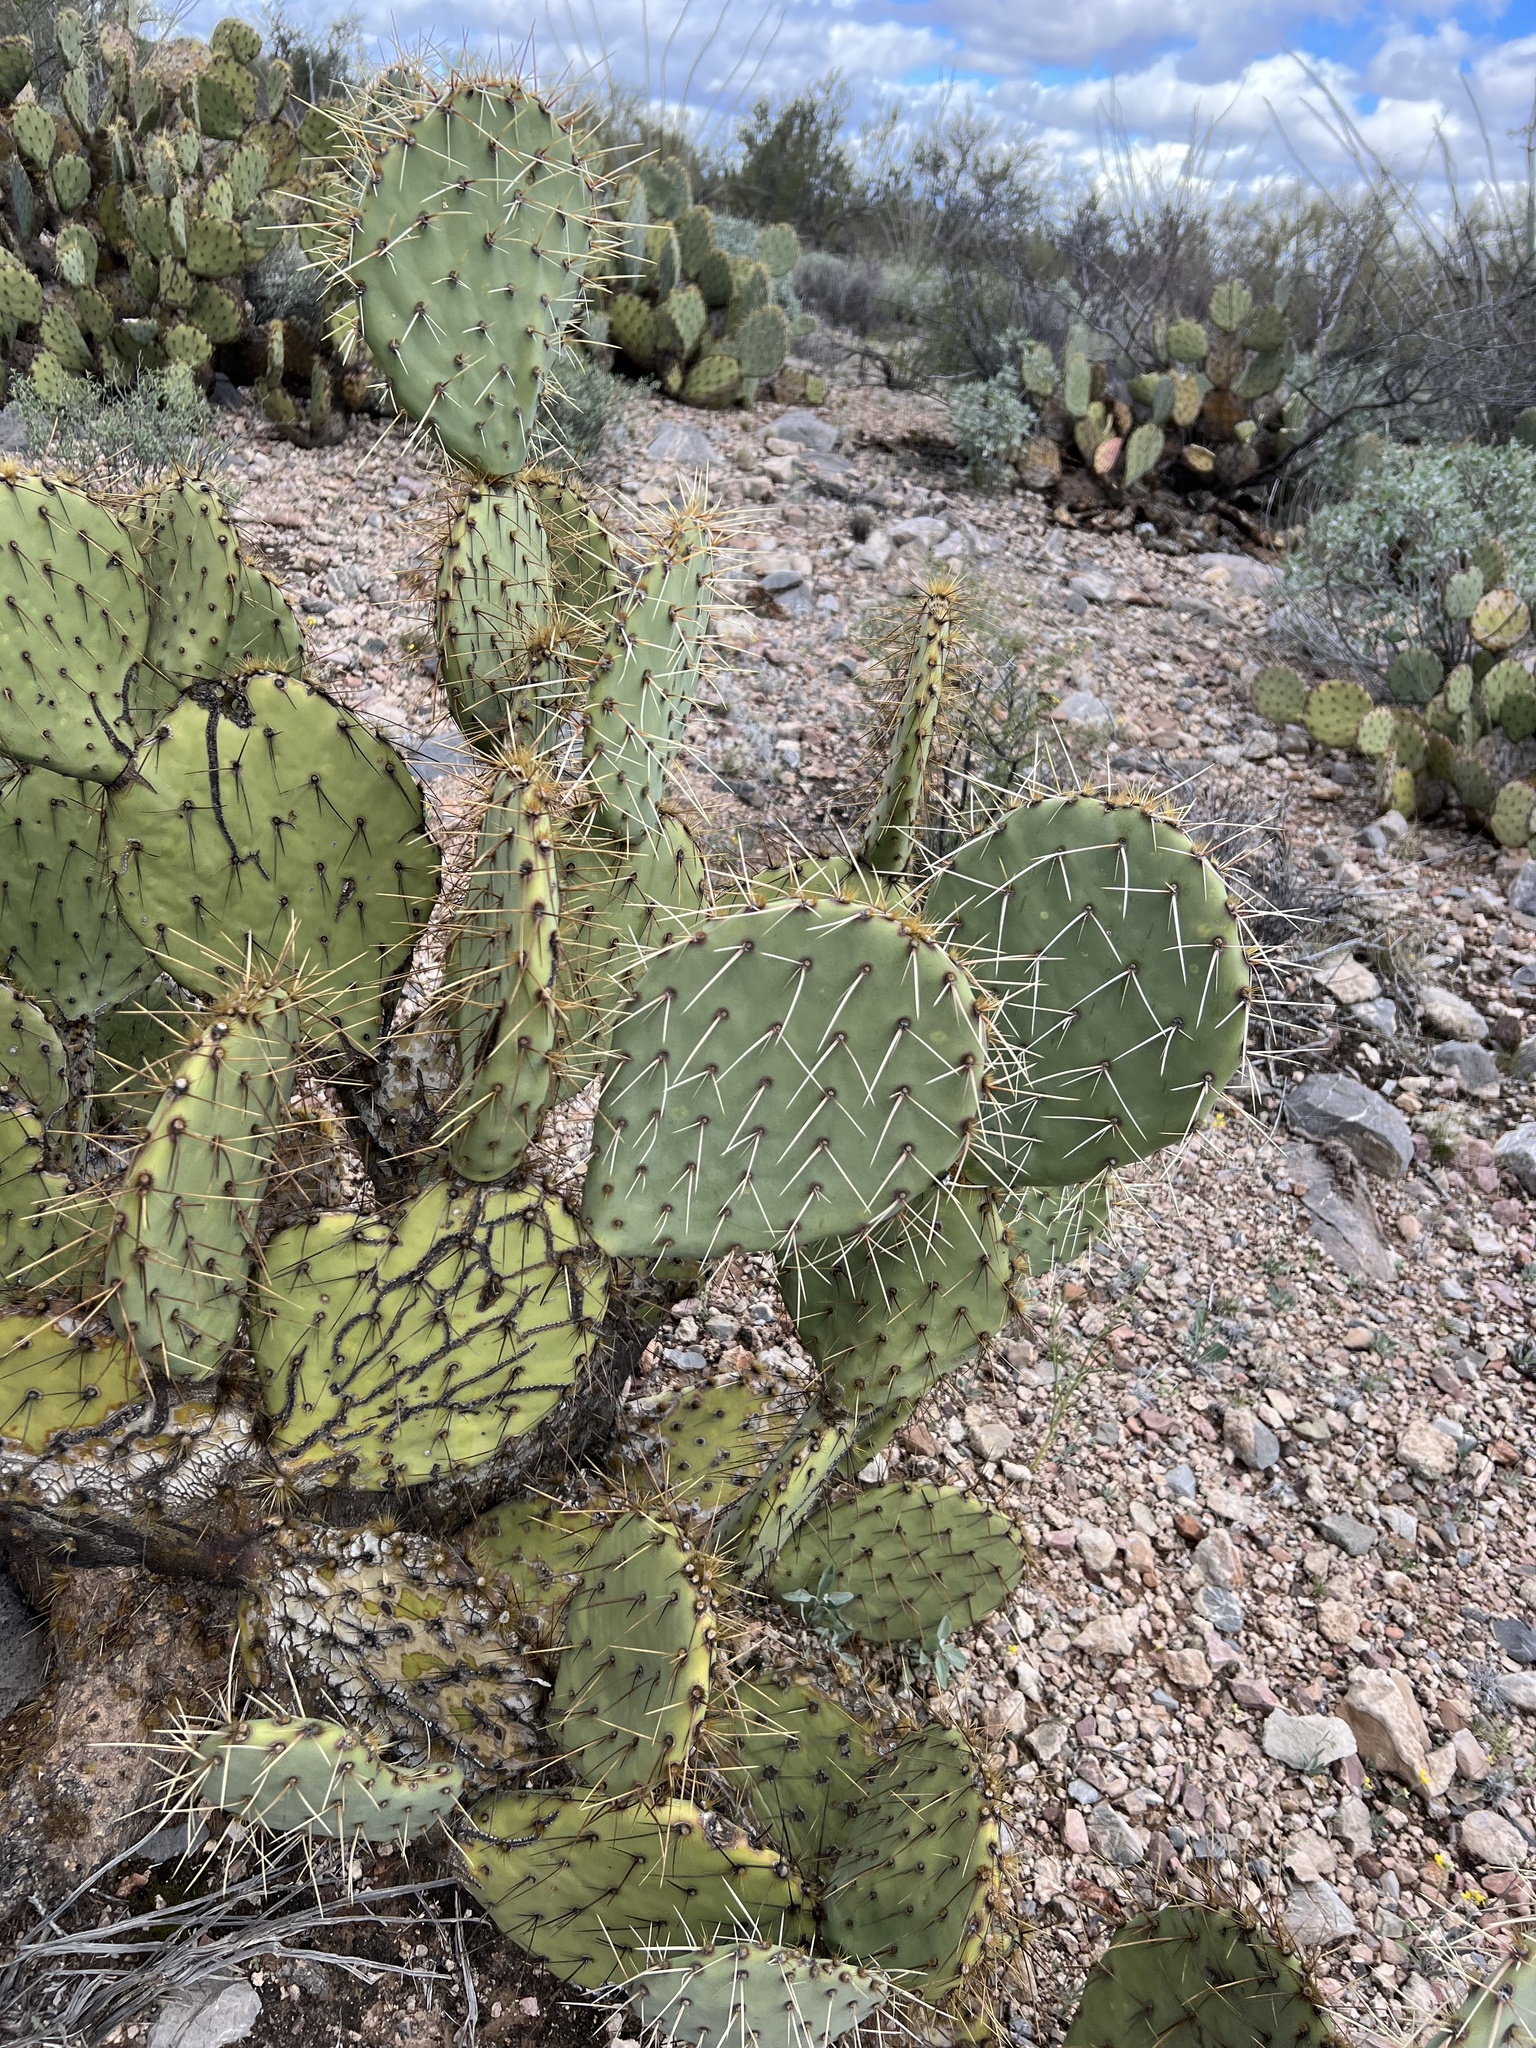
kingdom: Plantae
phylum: Tracheophyta
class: Magnoliopsida
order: Caryophyllales
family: Cactaceae
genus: Opuntia
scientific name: Opuntia engelmannii
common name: Cactus-apple
